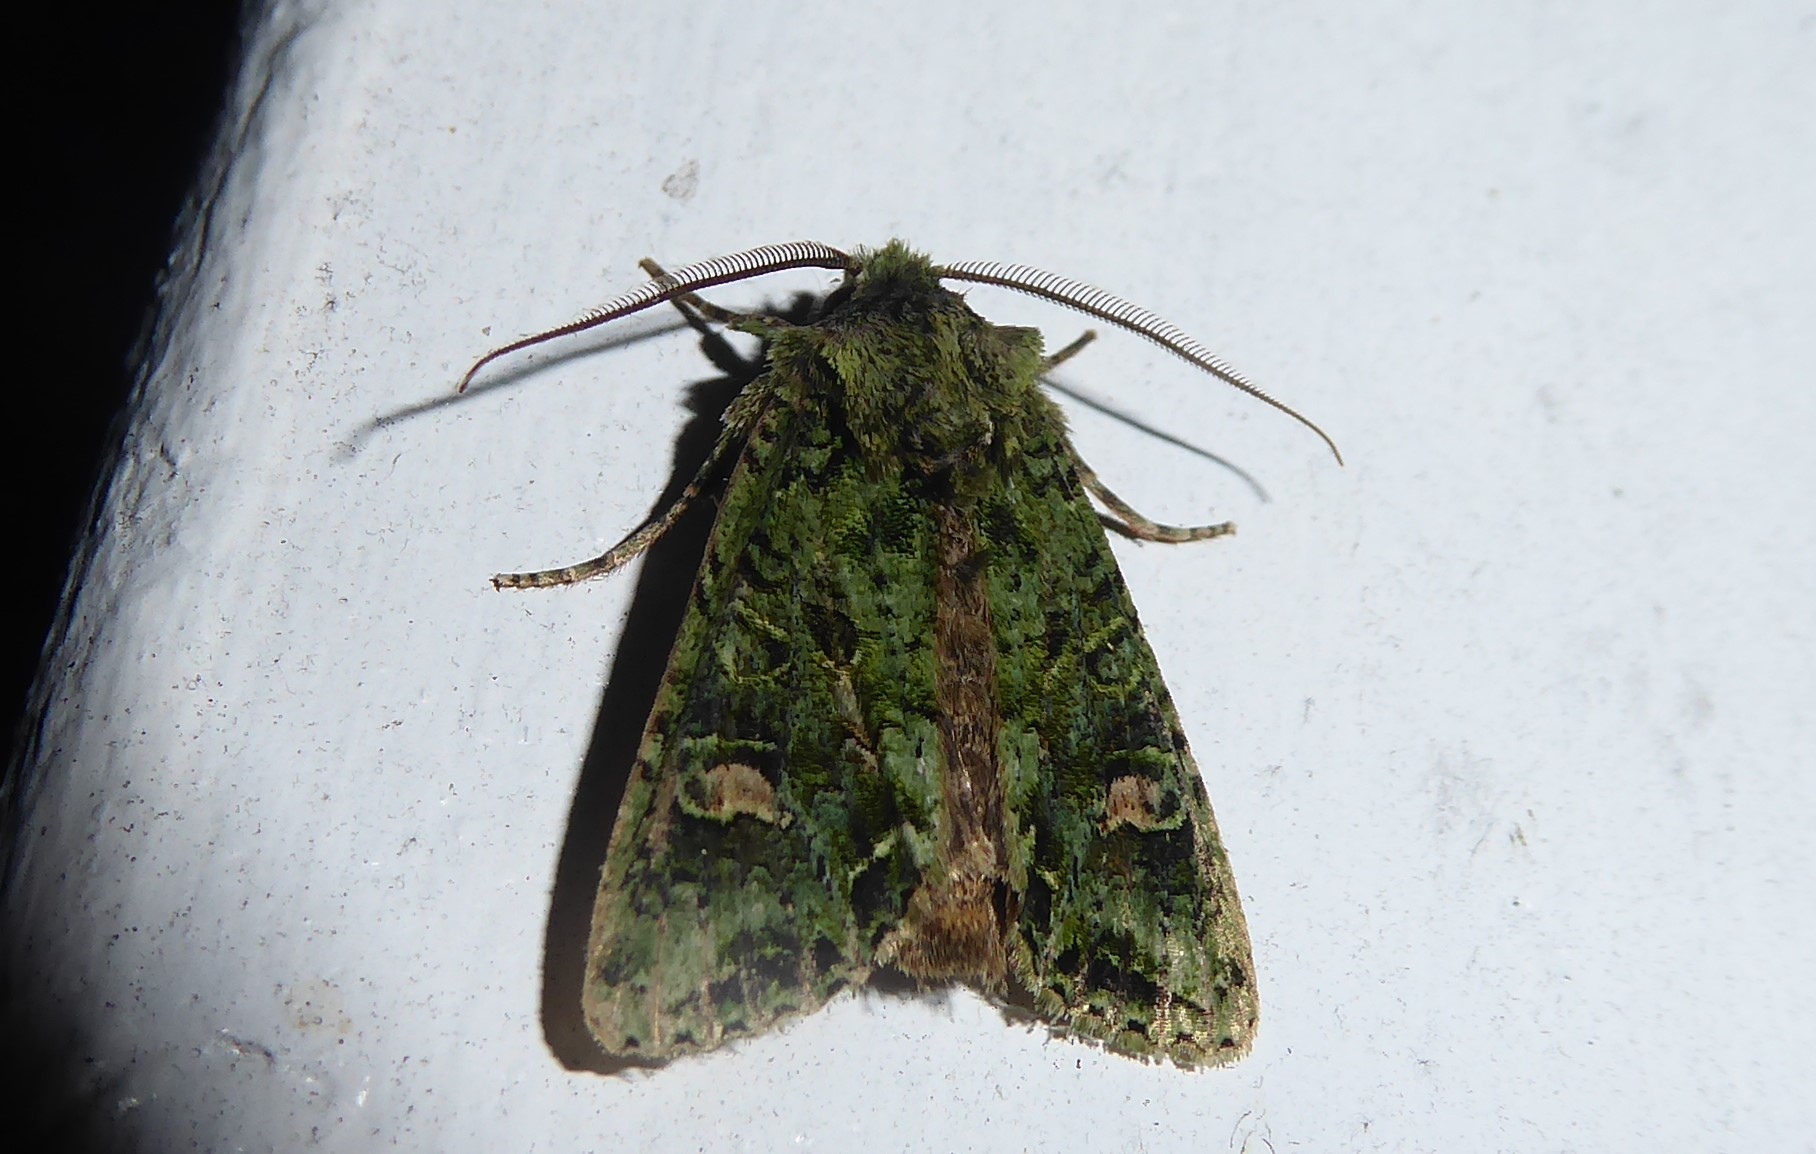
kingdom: Animalia
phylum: Arthropoda
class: Insecta
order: Lepidoptera
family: Noctuidae
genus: Ichneutica
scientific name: Ichneutica
